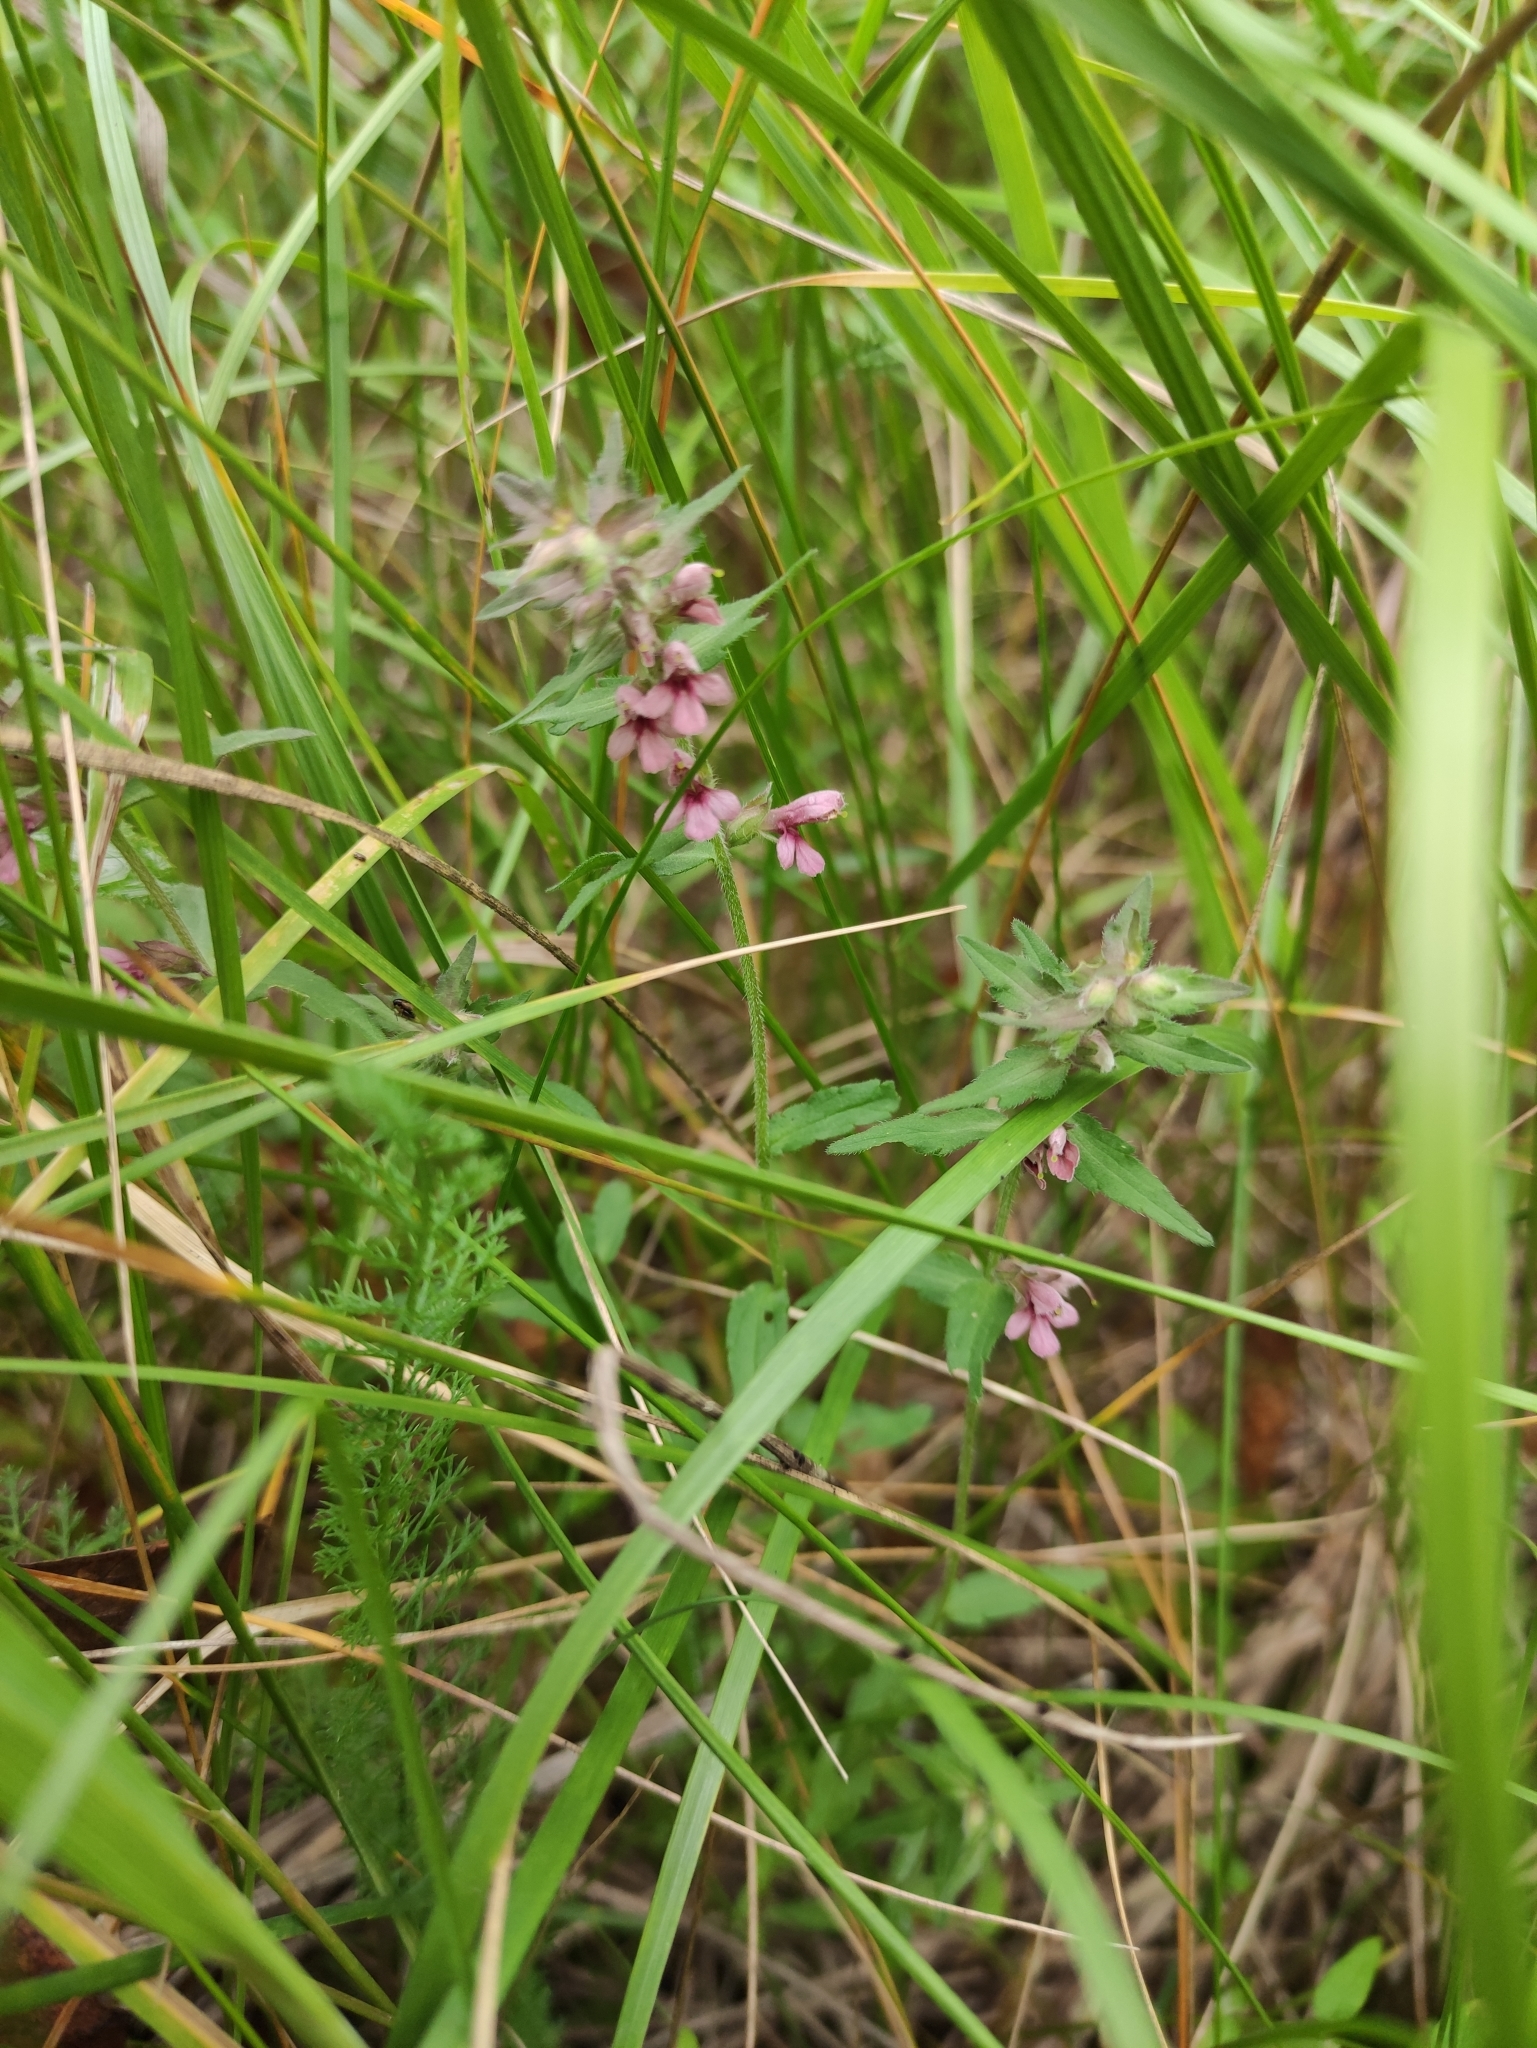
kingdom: Plantae
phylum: Tracheophyta
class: Magnoliopsida
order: Lamiales
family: Orobanchaceae
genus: Odontites
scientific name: Odontites vulgaris
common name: Broomrape
